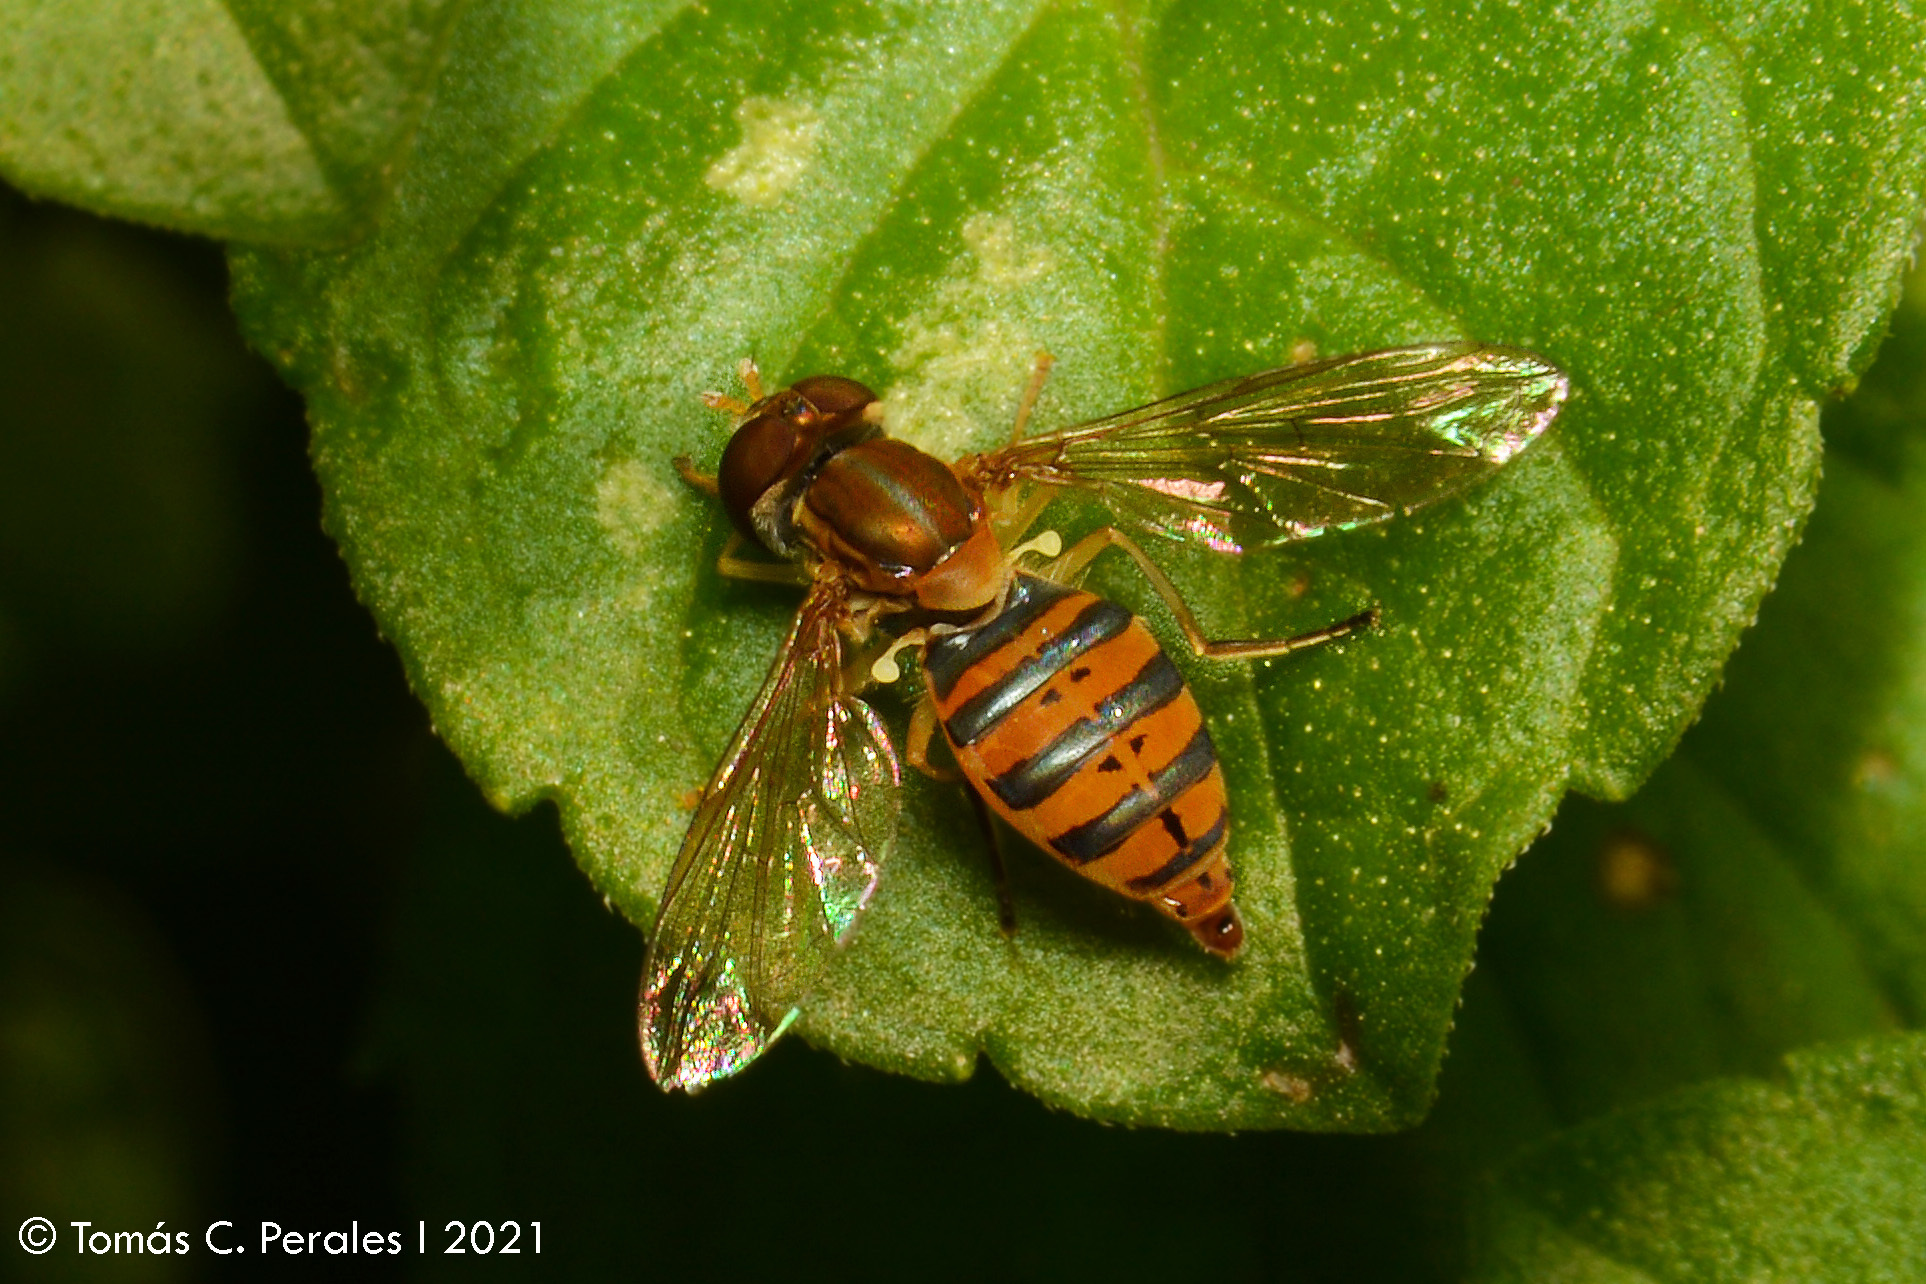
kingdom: Animalia
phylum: Arthropoda
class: Insecta
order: Diptera
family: Syrphidae
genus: Toxomerus
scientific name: Toxomerus
